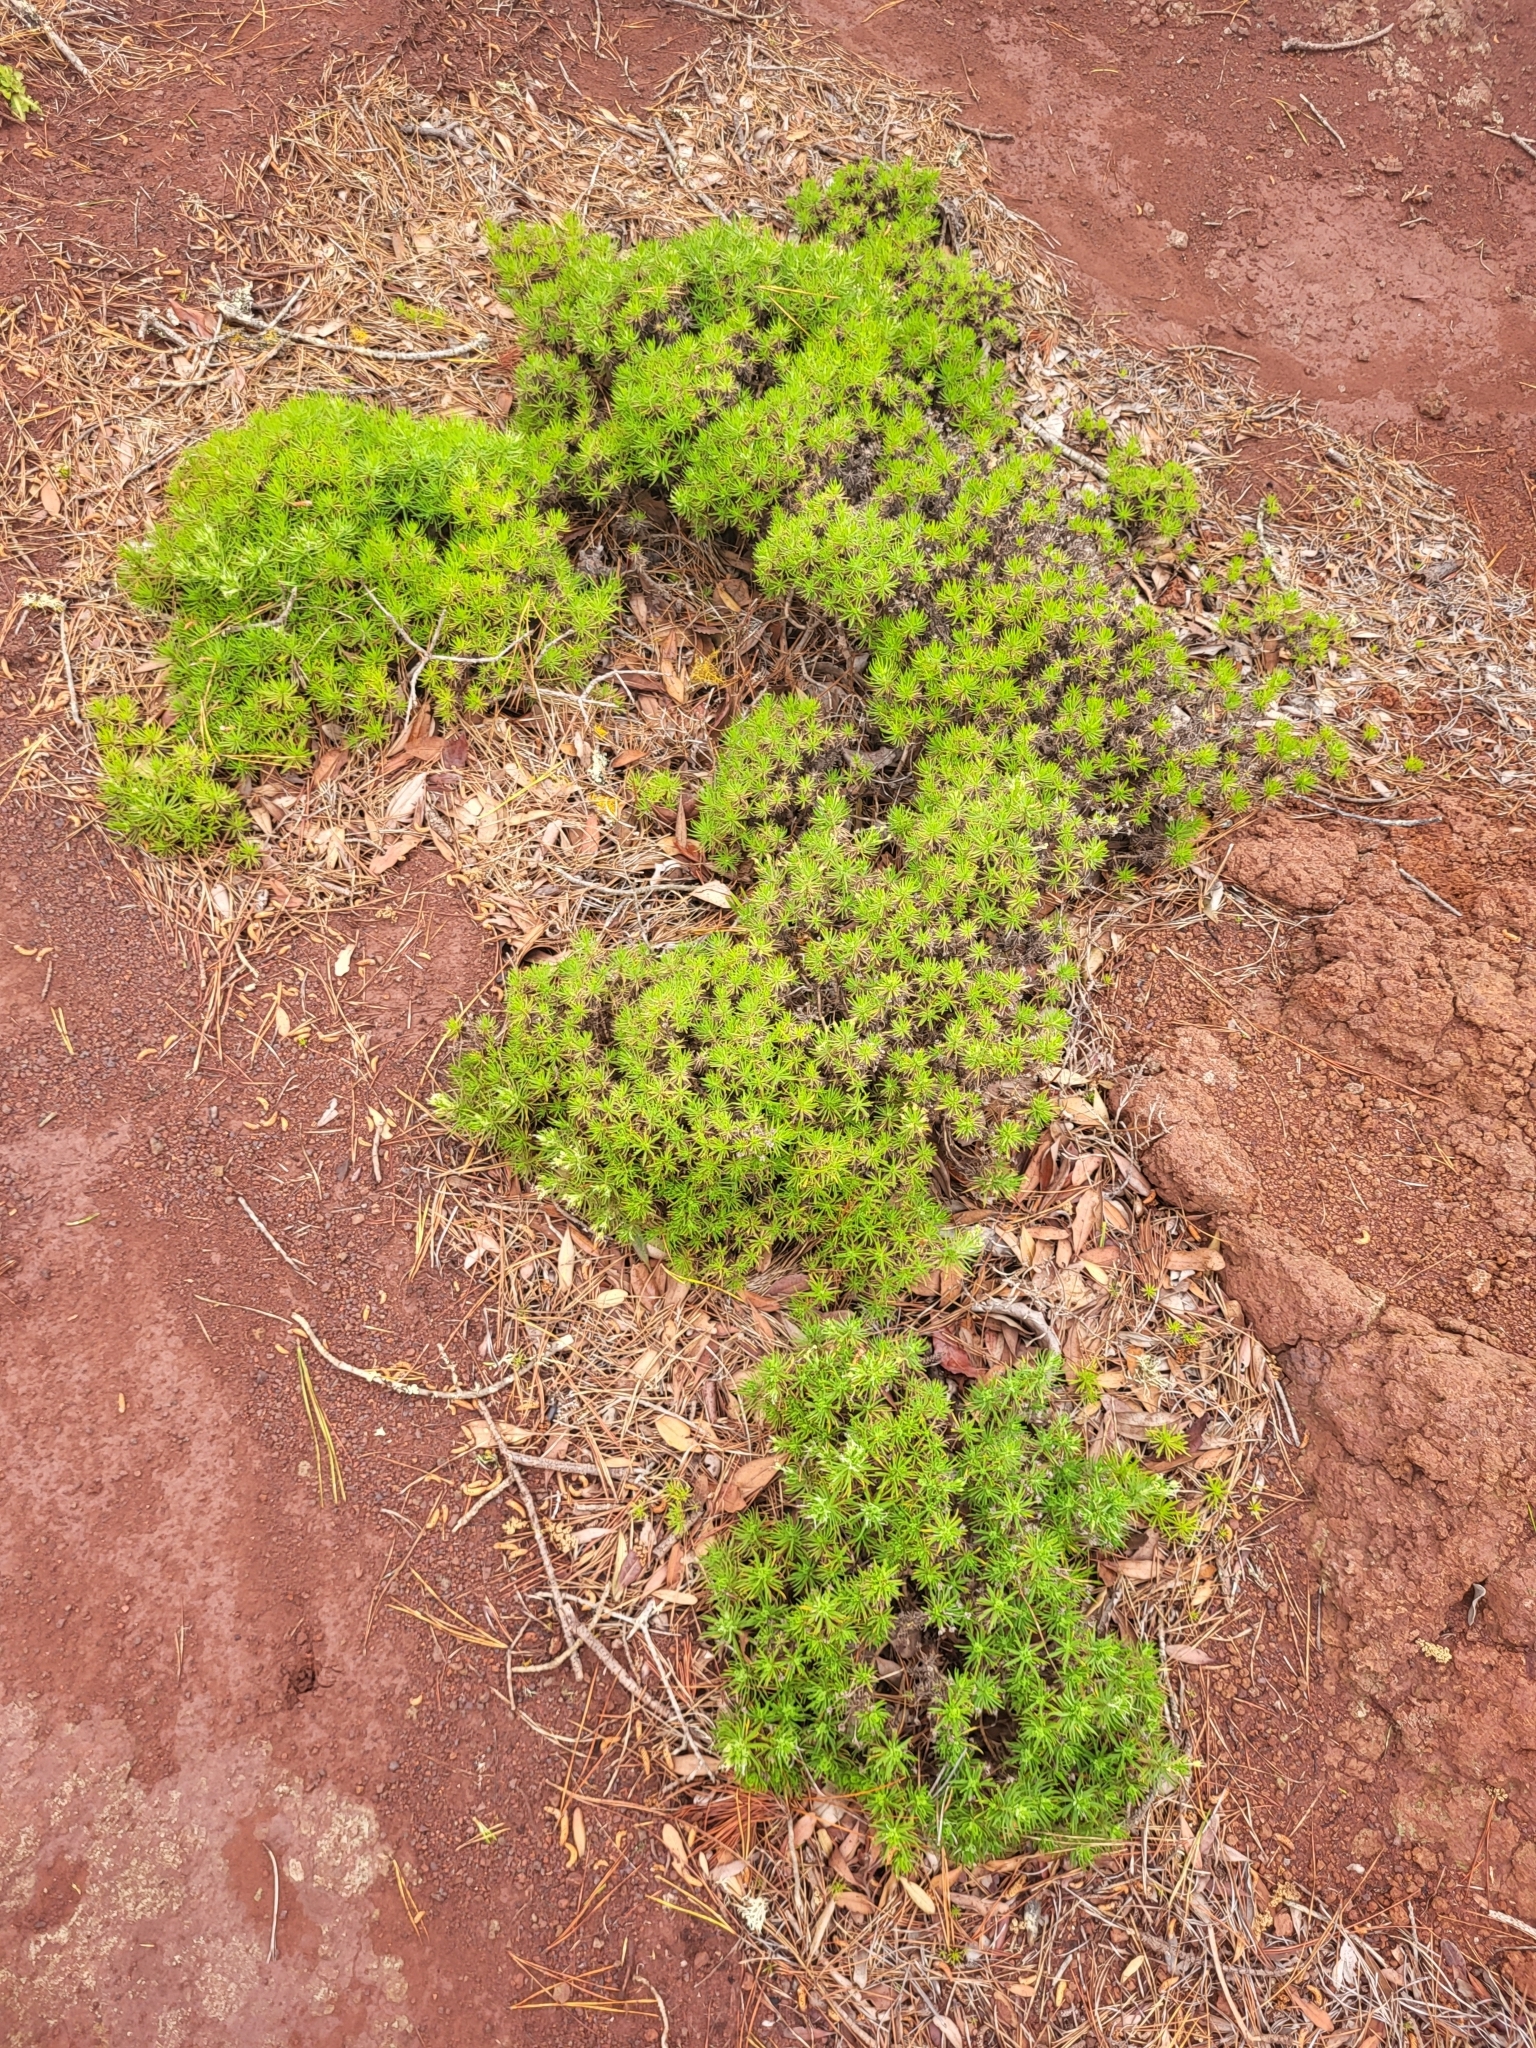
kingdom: Plantae
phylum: Tracheophyta
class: Magnoliopsida
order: Lamiales
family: Plantaginaceae
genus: Plantago
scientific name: Plantago arborescens
